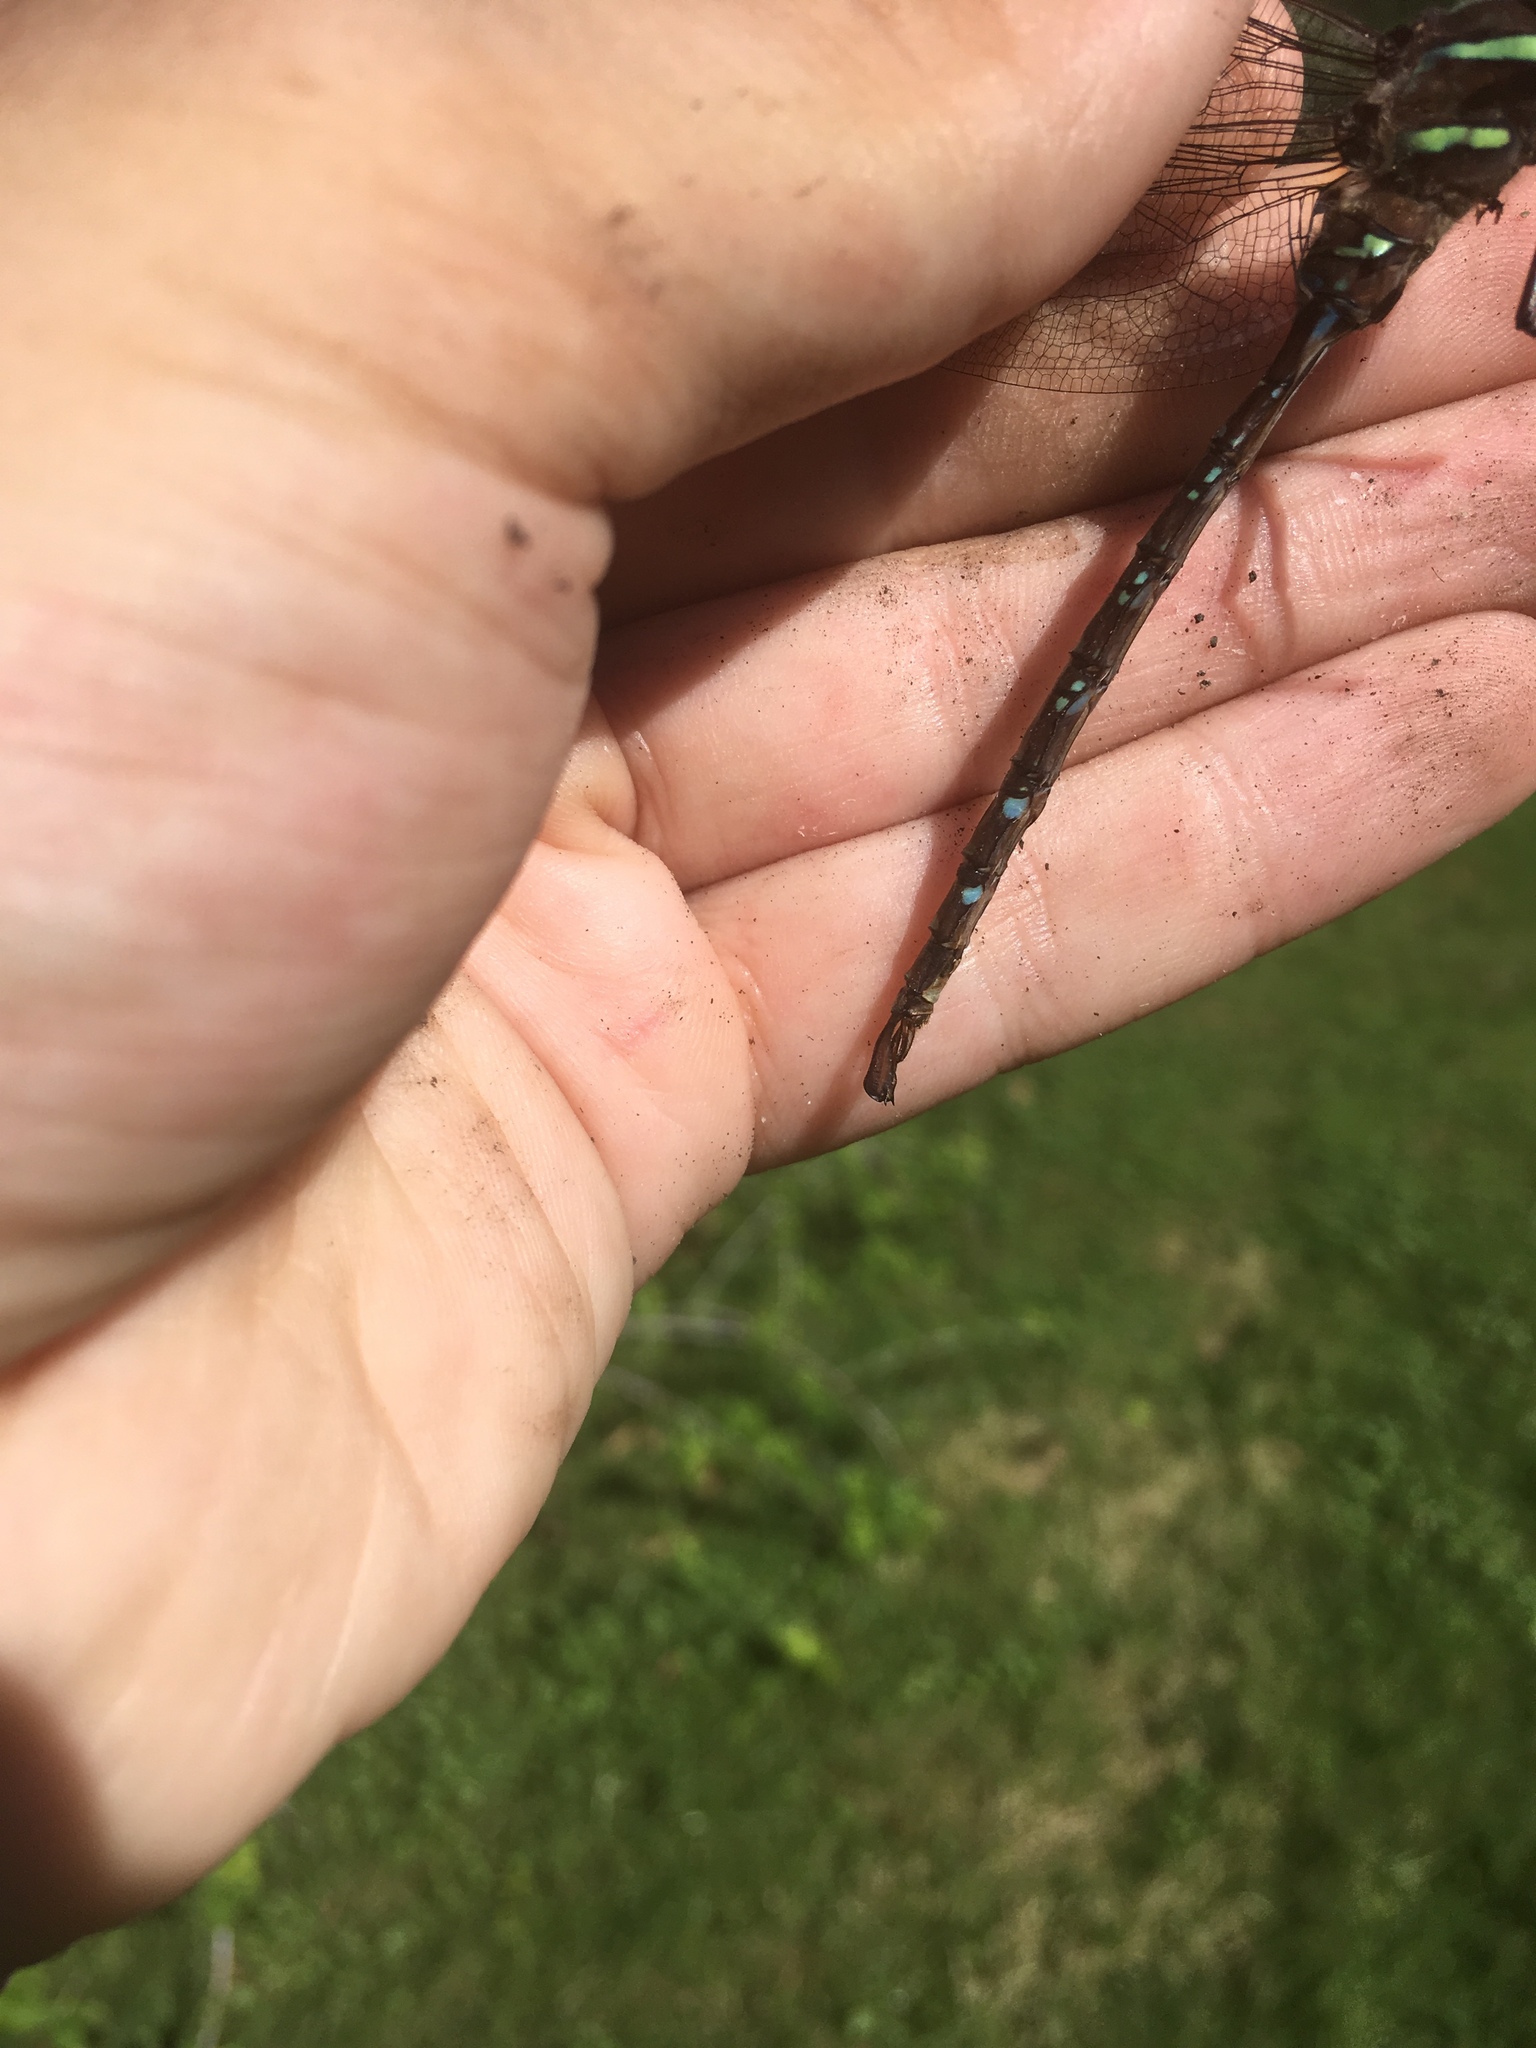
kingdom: Animalia
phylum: Arthropoda
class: Insecta
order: Odonata
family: Aeshnidae
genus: Aeshna
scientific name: Aeshna umbrosa
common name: Shadow darner
